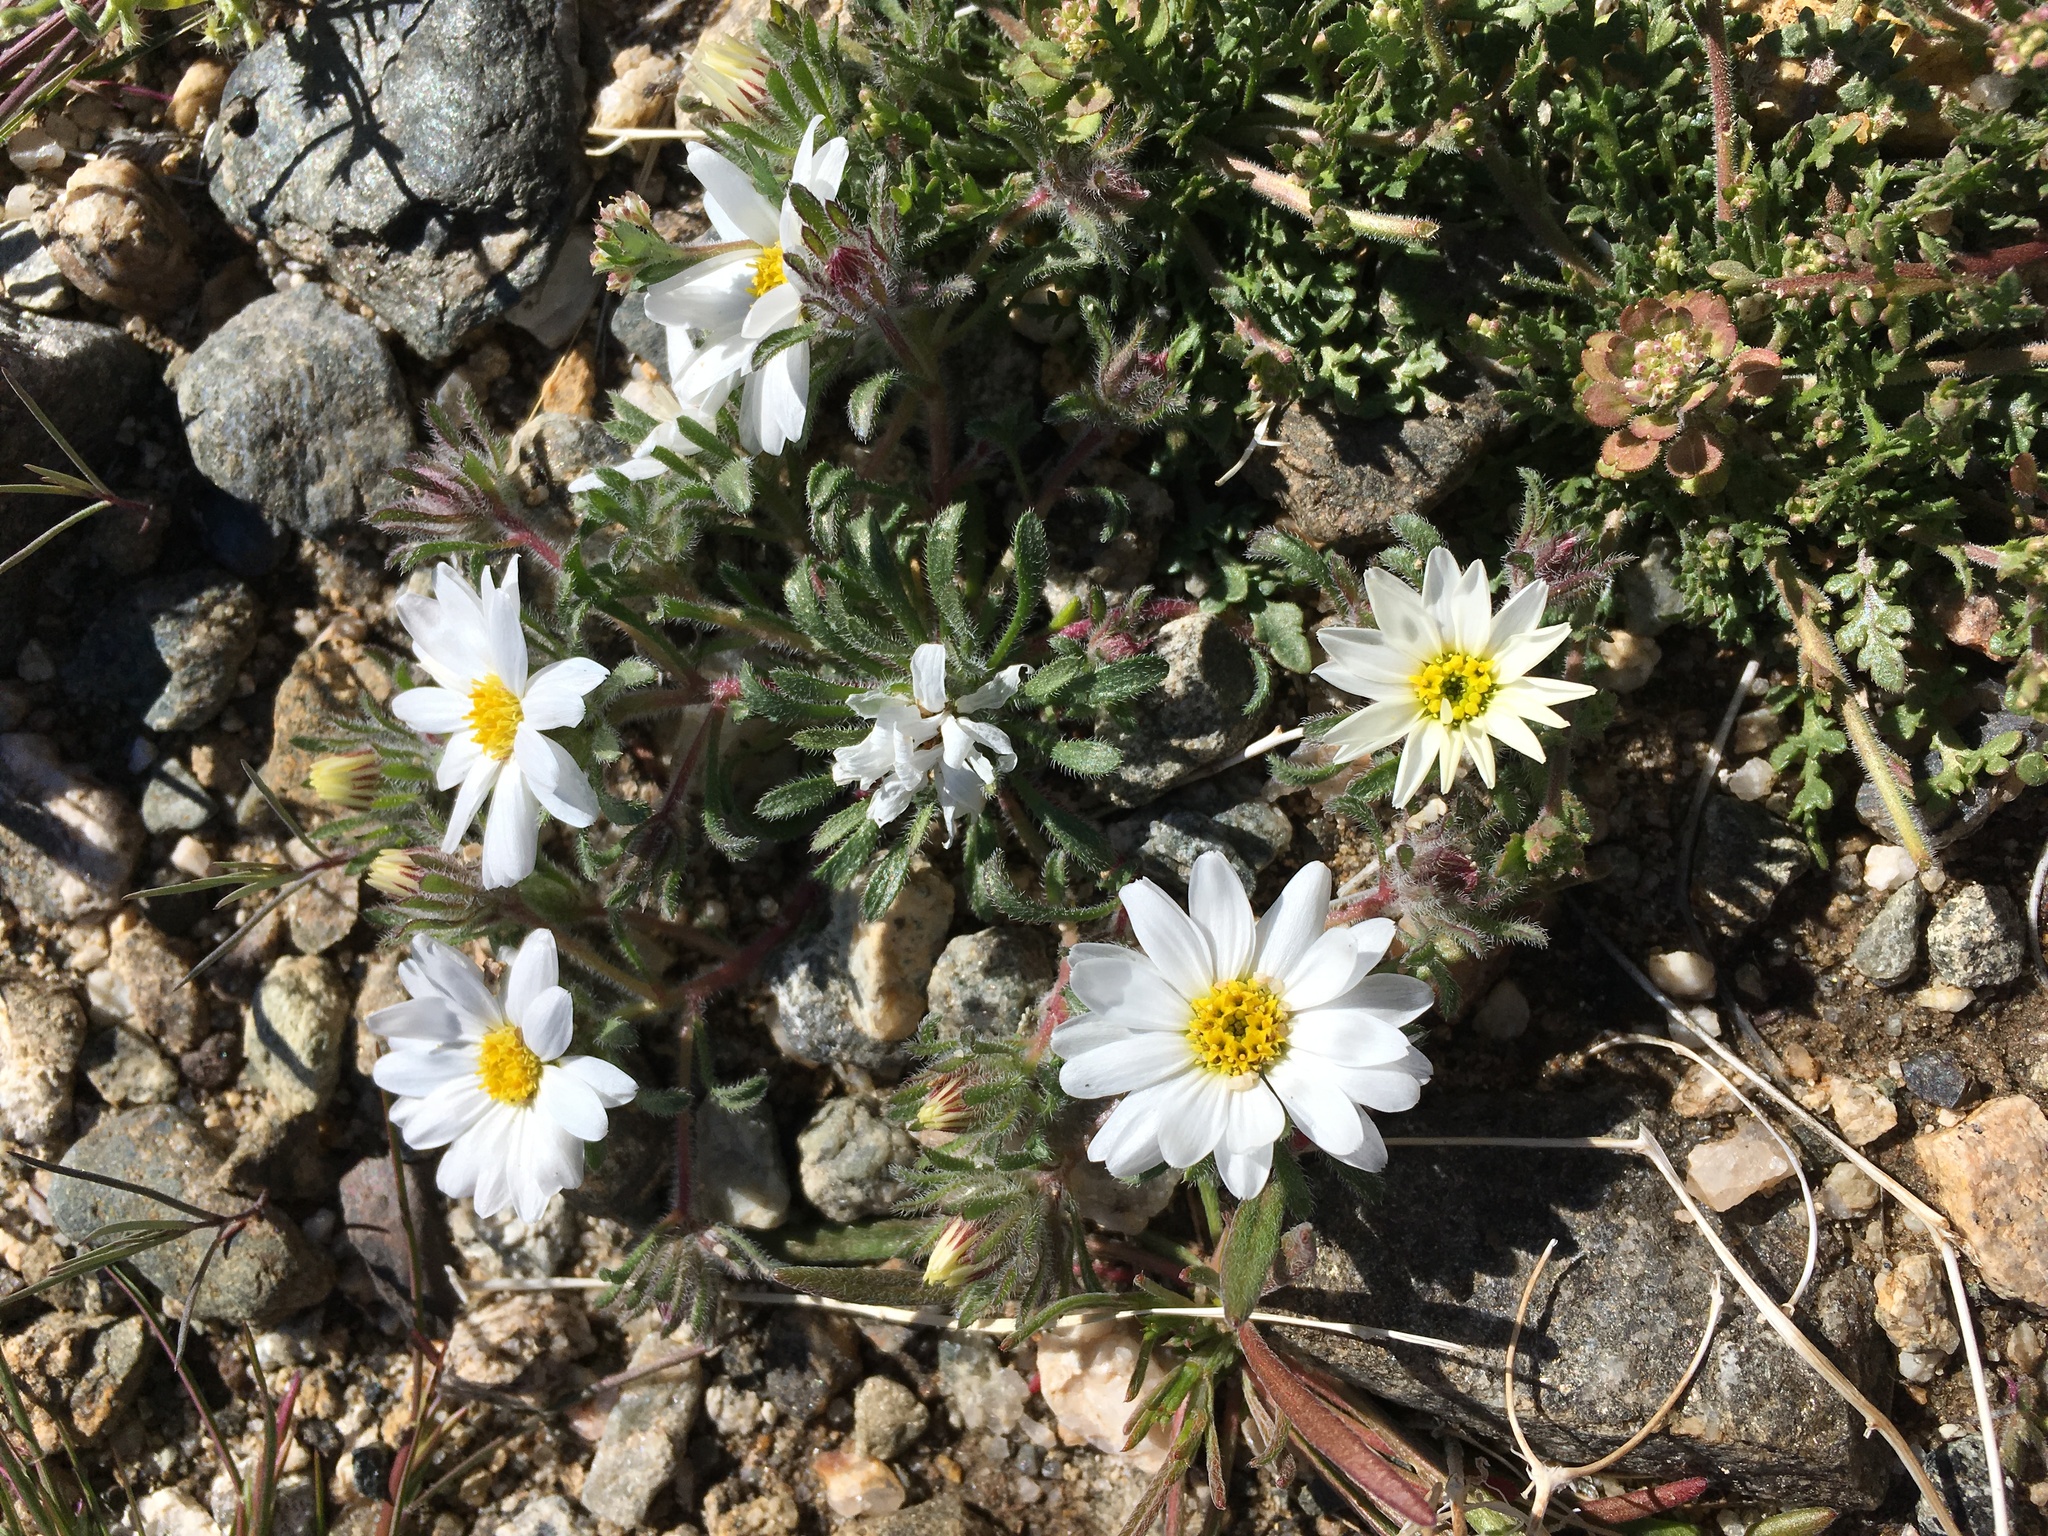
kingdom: Plantae
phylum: Tracheophyta
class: Magnoliopsida
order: Asterales
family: Asteraceae
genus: Monoptilon
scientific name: Monoptilon bellioides
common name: Bristly desertstar
